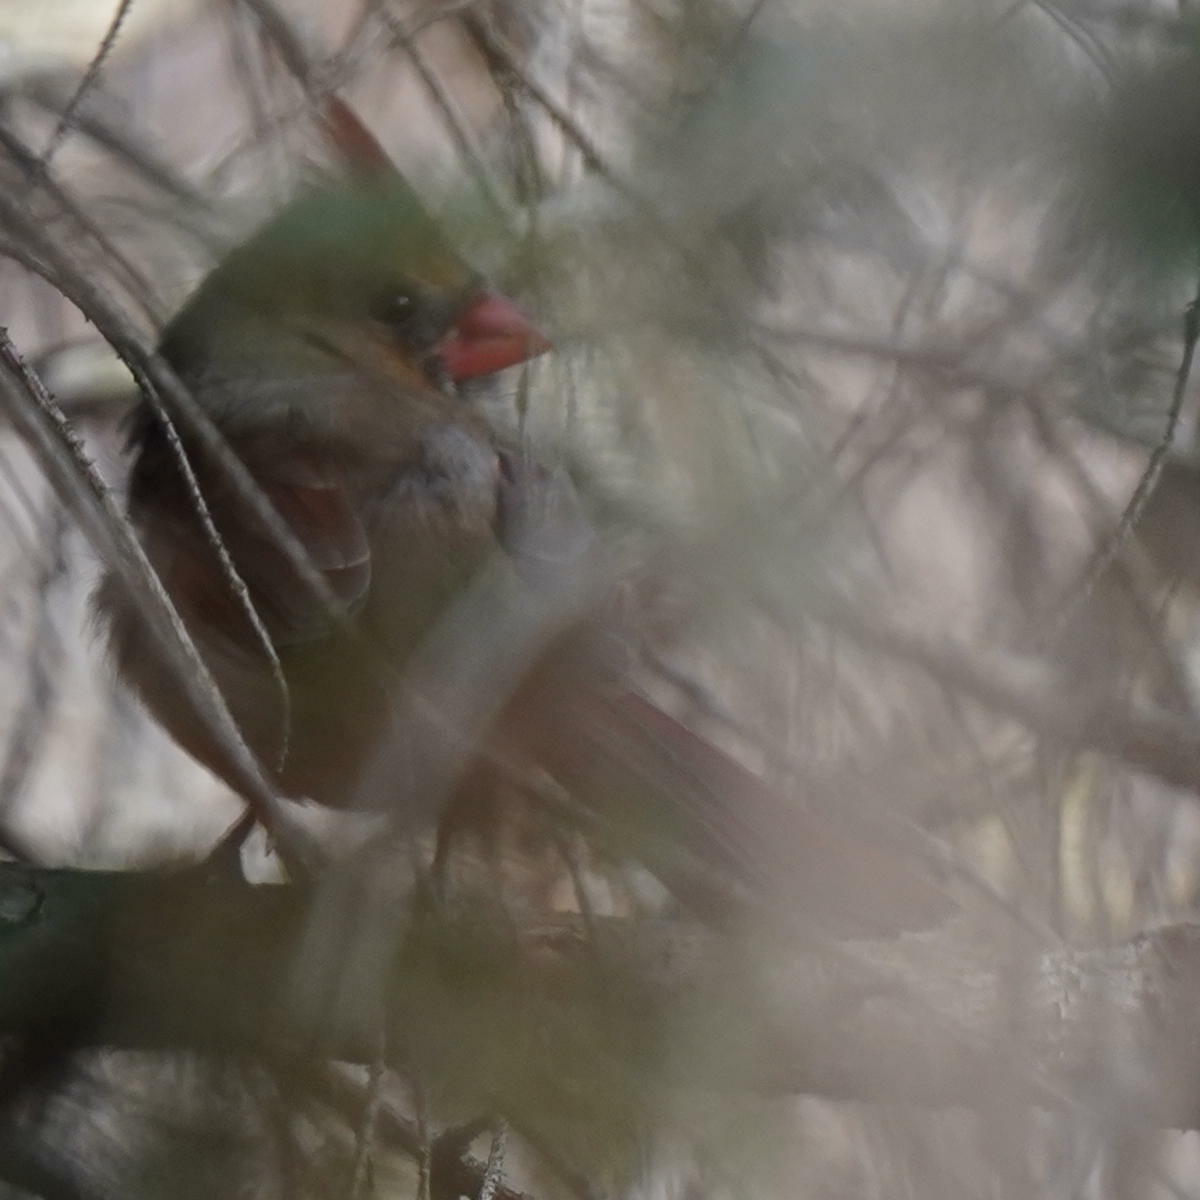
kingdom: Animalia
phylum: Chordata
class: Aves
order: Passeriformes
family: Cardinalidae
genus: Cardinalis
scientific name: Cardinalis cardinalis
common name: Northern cardinal
